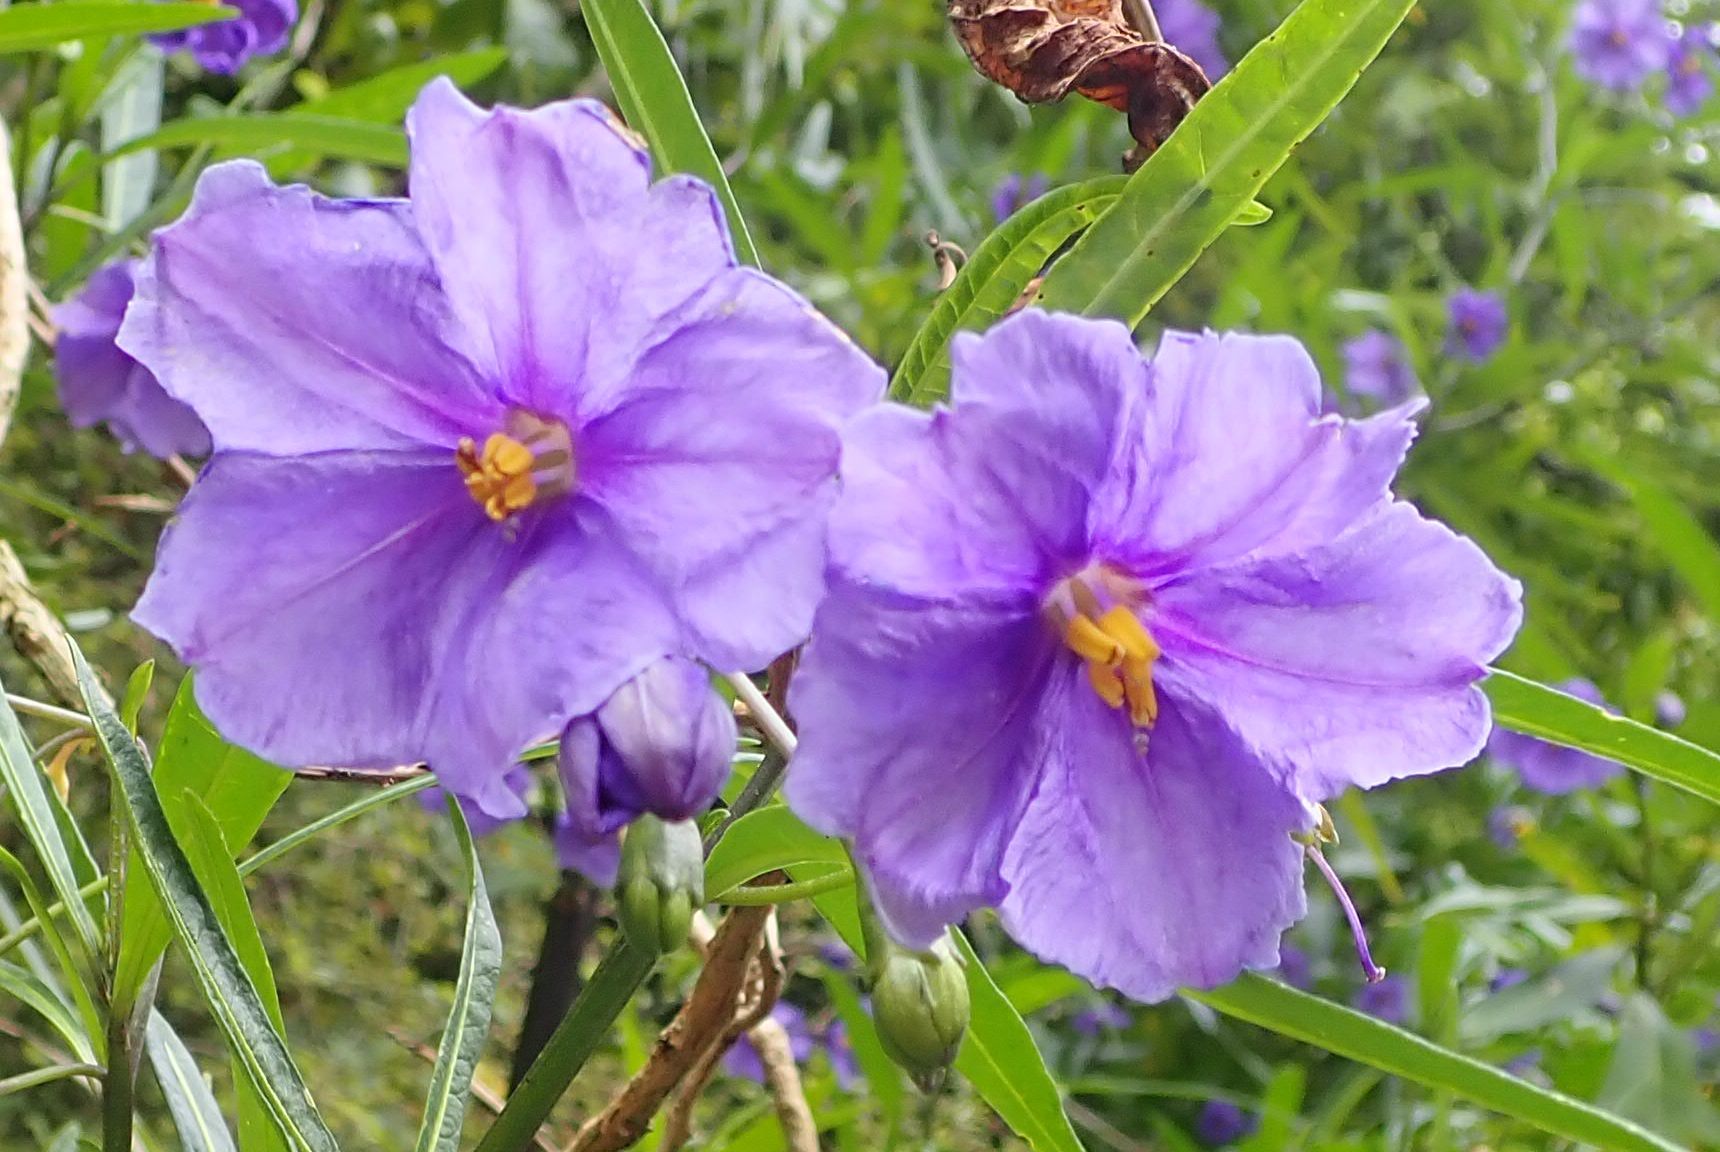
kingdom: Plantae
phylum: Tracheophyta
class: Magnoliopsida
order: Solanales
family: Solanaceae
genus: Solanum
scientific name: Solanum laciniatum
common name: Kangaroo-apple
